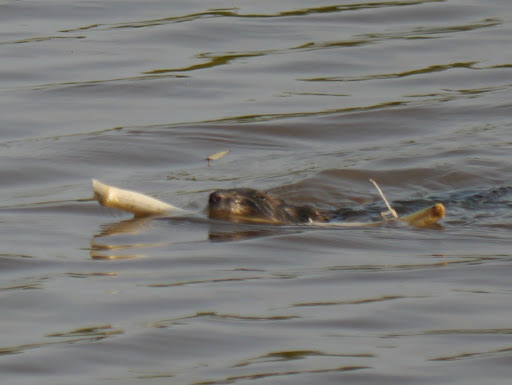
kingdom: Animalia
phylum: Chordata
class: Mammalia
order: Rodentia
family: Cricetidae
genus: Ondatra
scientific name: Ondatra zibethicus
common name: Muskrat
